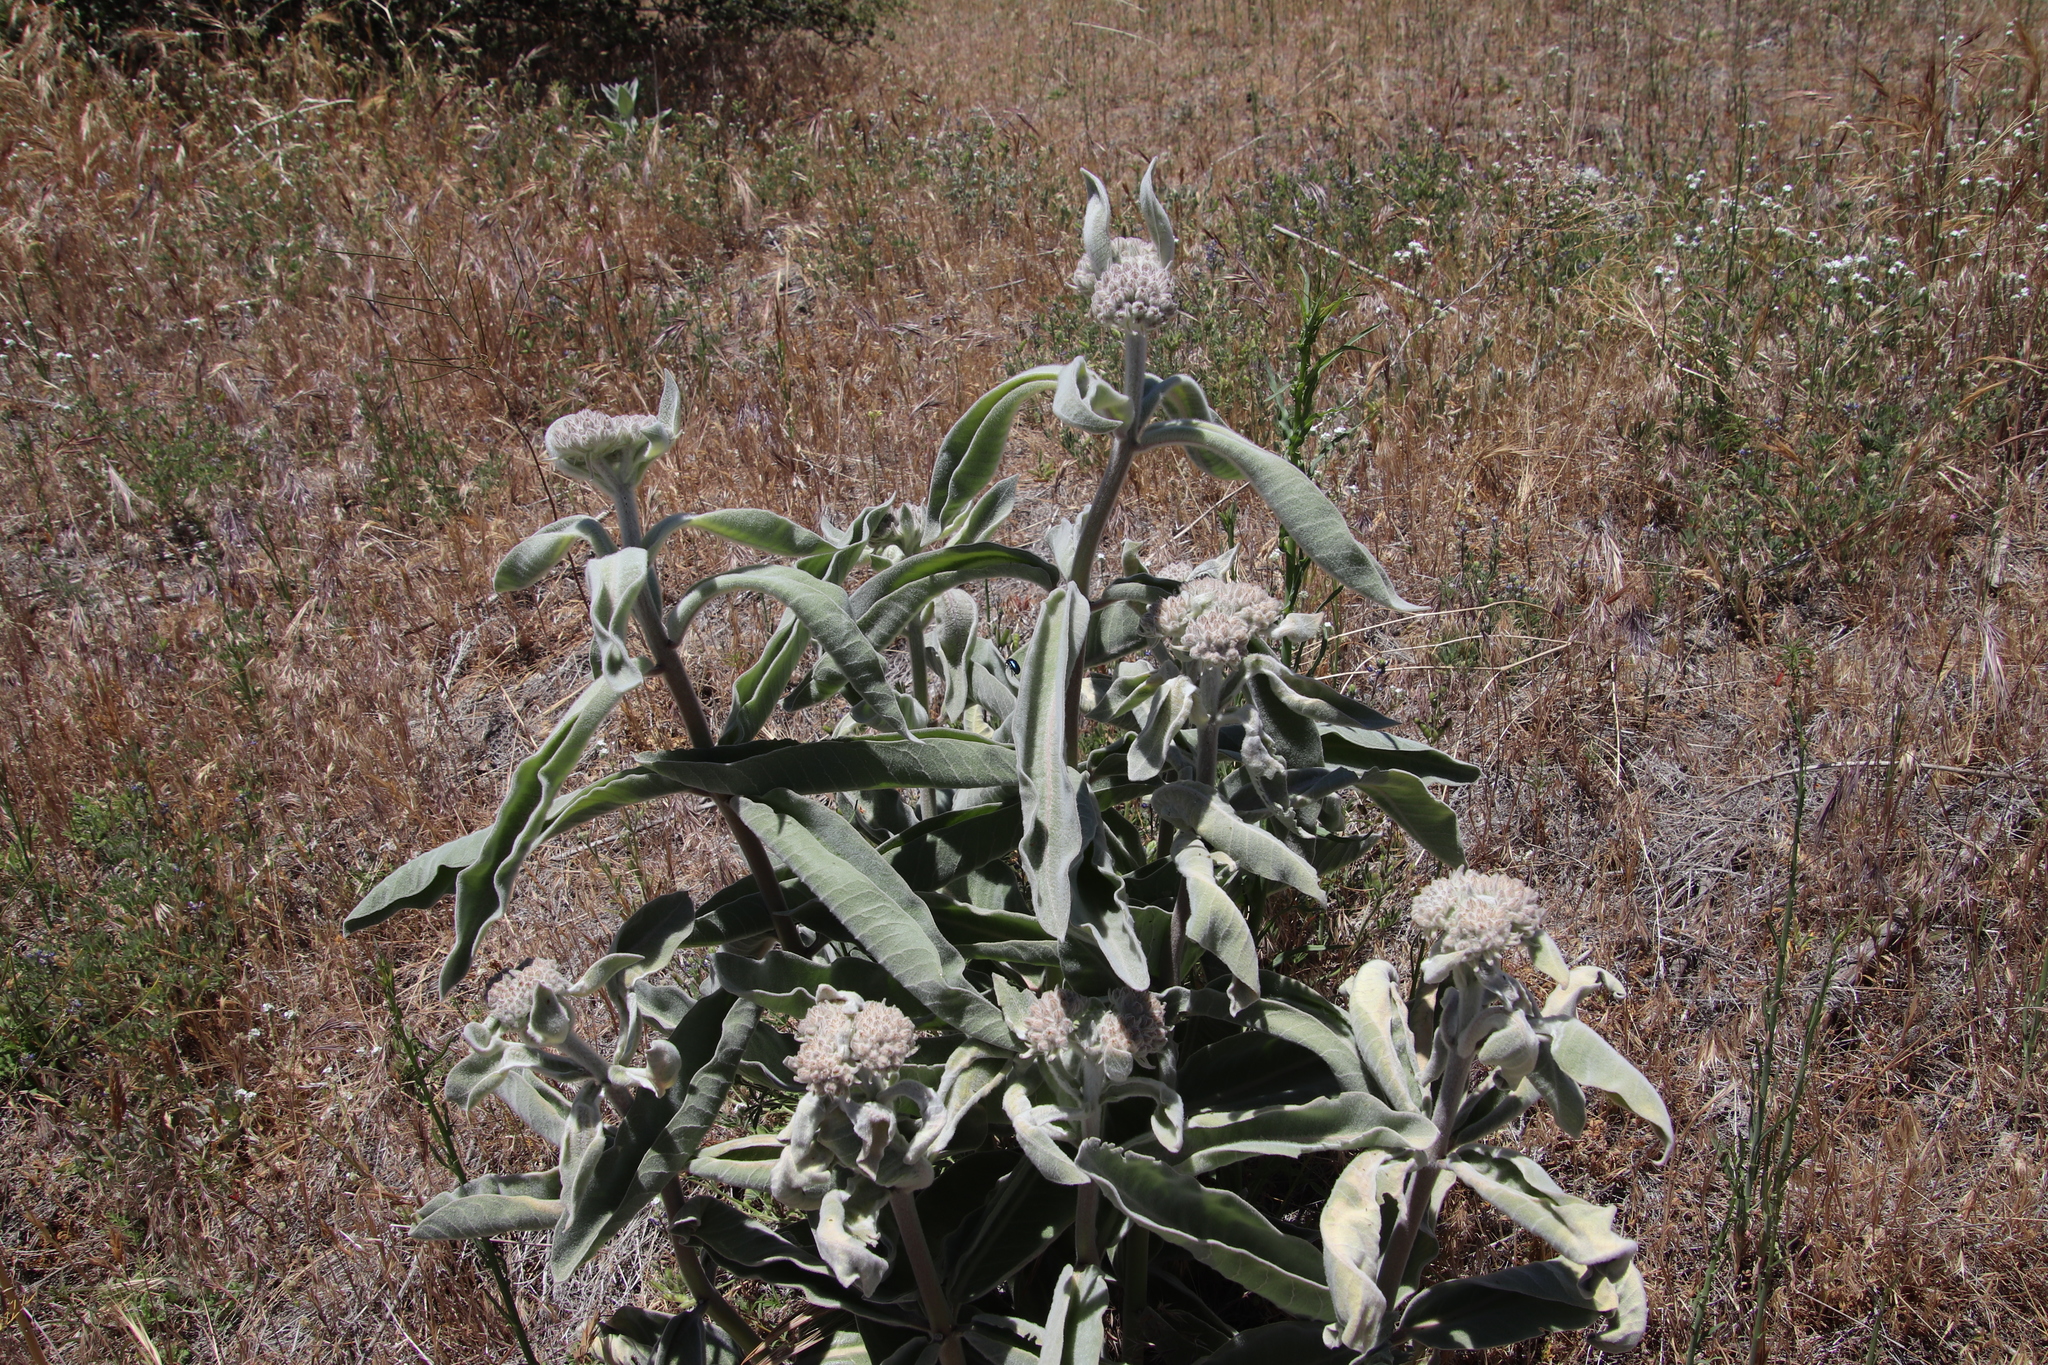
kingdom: Plantae
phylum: Tracheophyta
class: Magnoliopsida
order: Gentianales
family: Apocynaceae
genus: Asclepias
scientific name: Asclepias eriocarpa
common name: Indian milkweed
